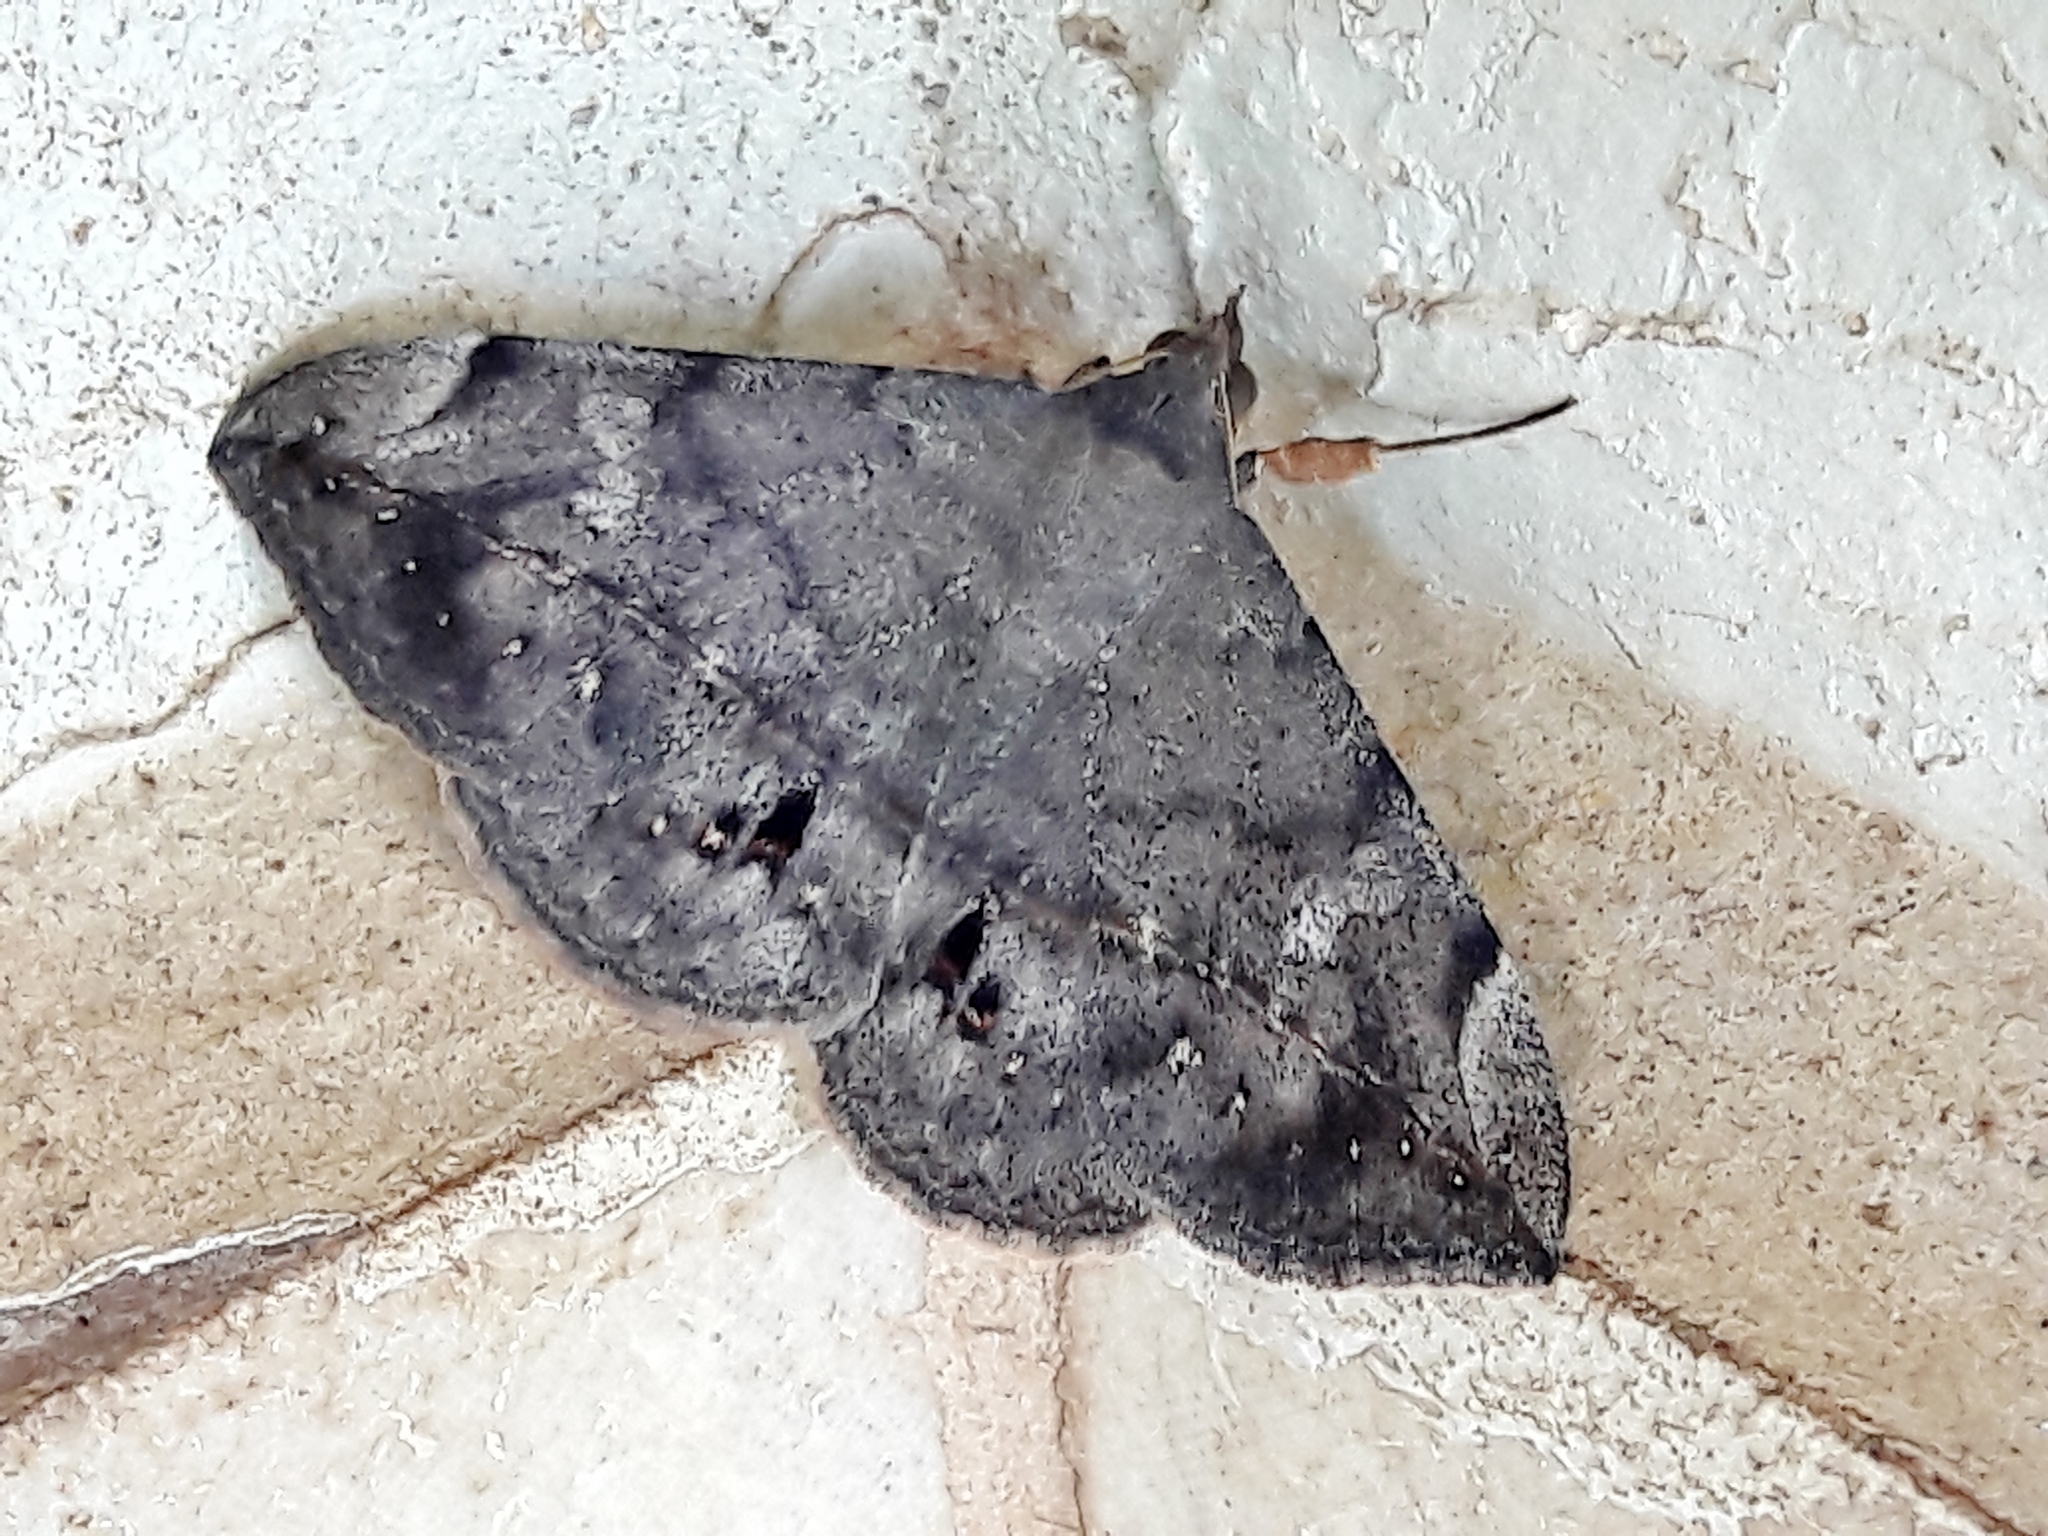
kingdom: Animalia
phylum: Arthropoda
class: Insecta
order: Lepidoptera
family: Erebidae
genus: Anticarsia
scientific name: Anticarsia gemmatalis
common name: Cutworm moth
